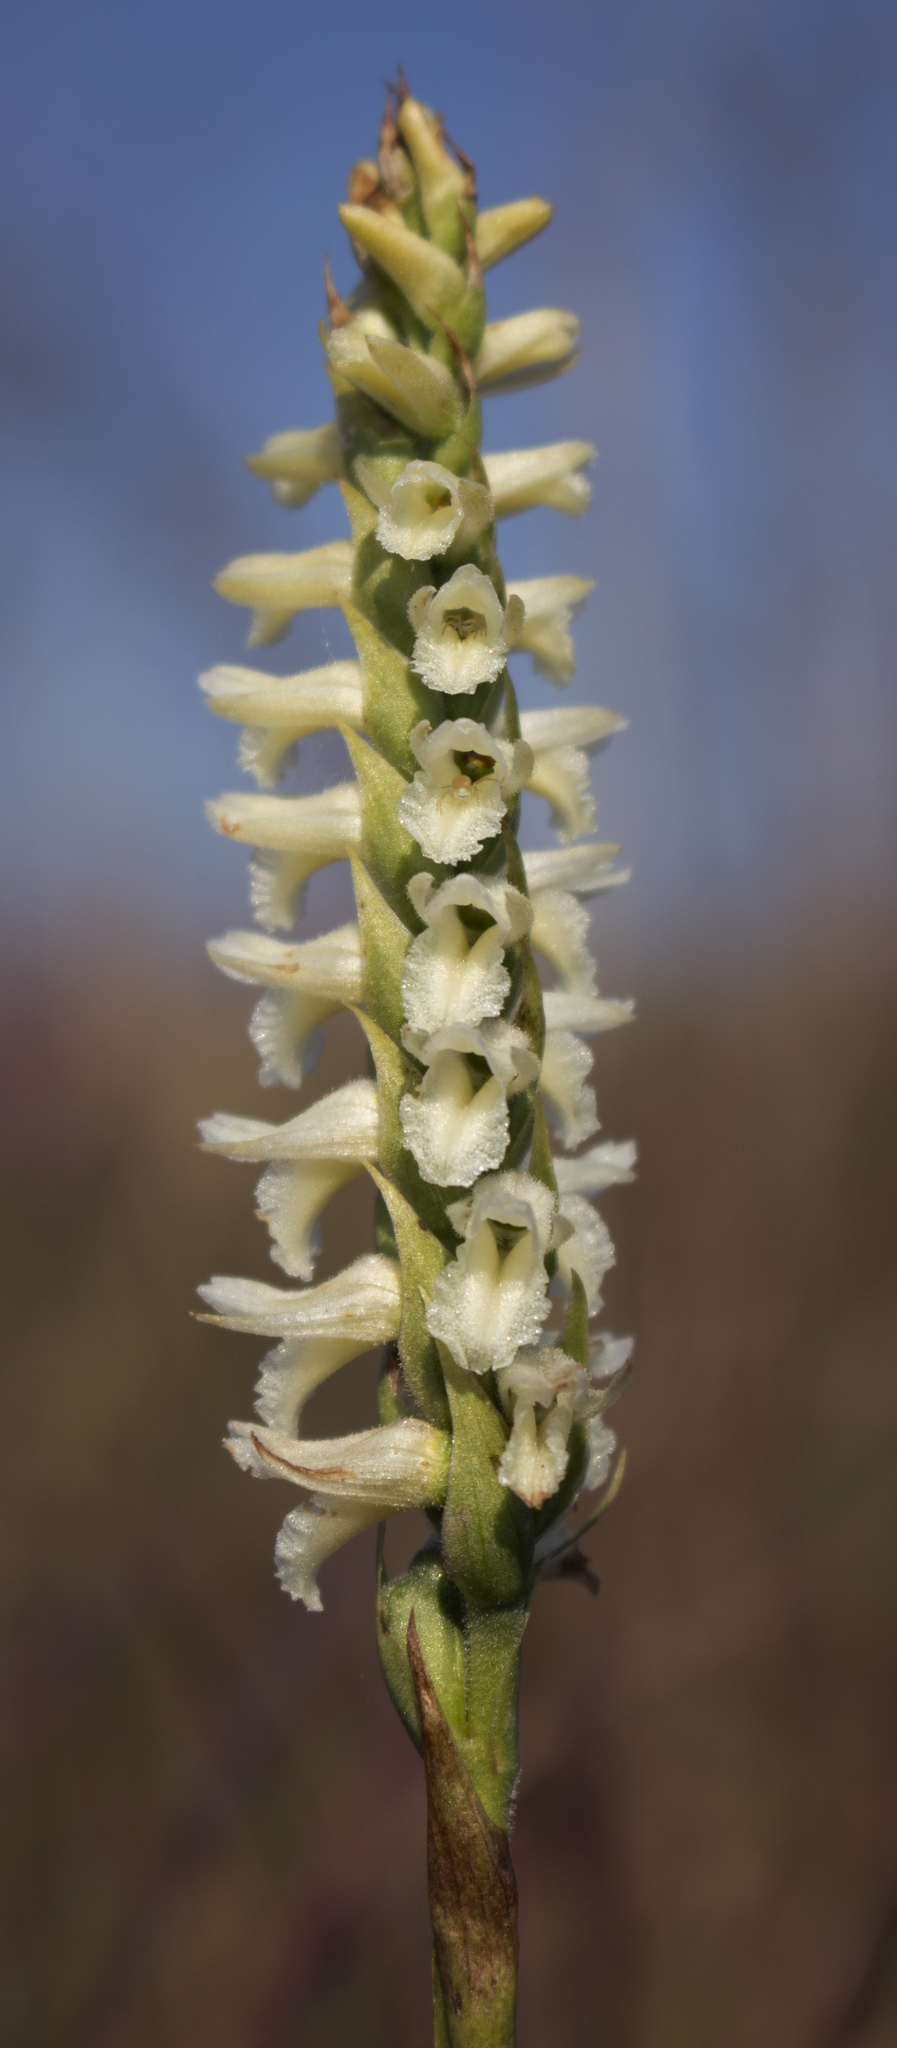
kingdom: Plantae
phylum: Tracheophyta
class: Liliopsida
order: Asparagales
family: Orchidaceae
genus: Spiranthes
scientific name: Spiranthes magnicamporum
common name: Great plains ladies'-tresses
